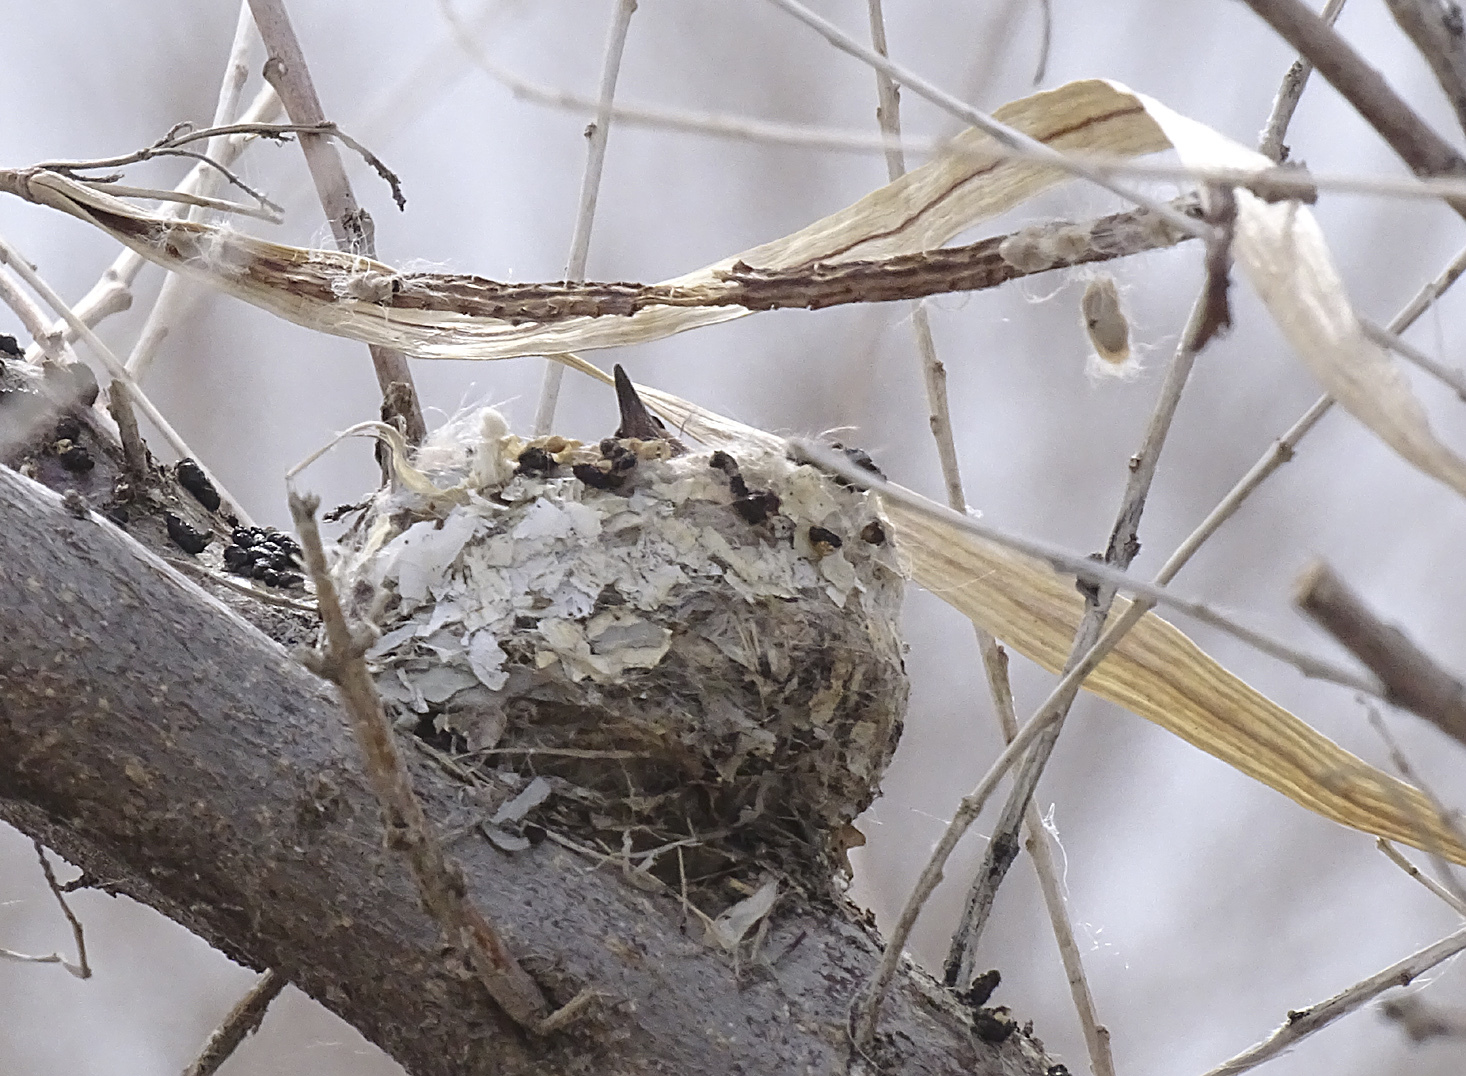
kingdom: Animalia
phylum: Chordata
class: Aves
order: Apodiformes
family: Trochilidae
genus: Calypte
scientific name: Calypte anna
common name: Anna's hummingbird
